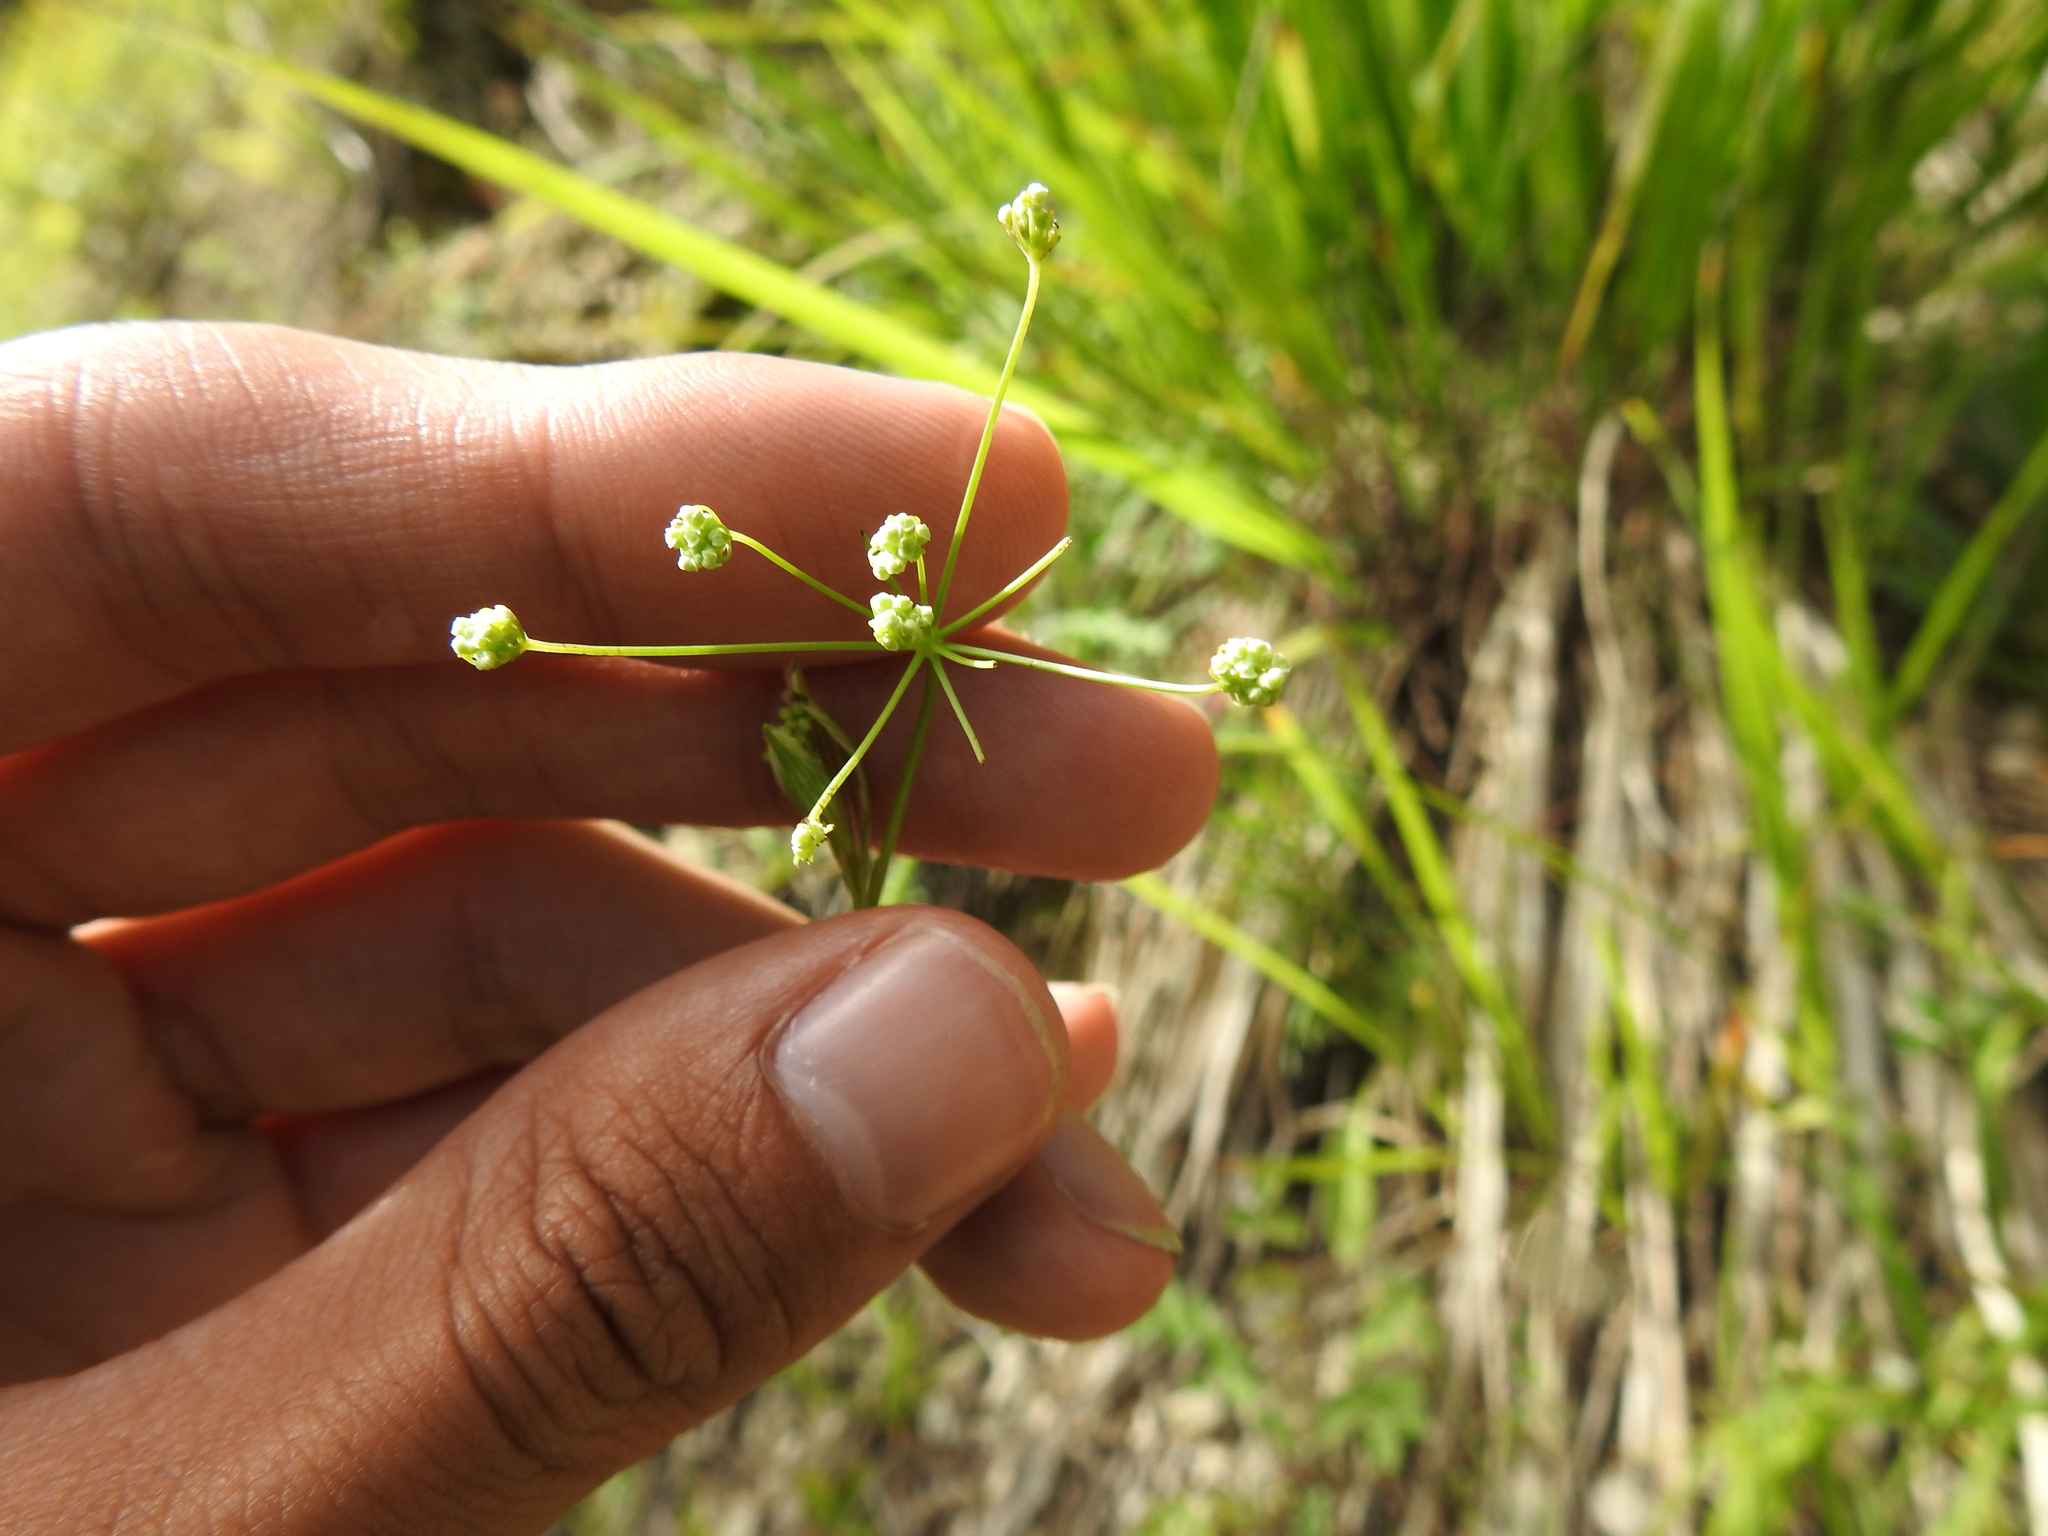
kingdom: Plantae
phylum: Tracheophyta
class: Magnoliopsida
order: Apiales
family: Apiaceae
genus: Sanicula
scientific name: Sanicula europaea
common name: Sanicle
